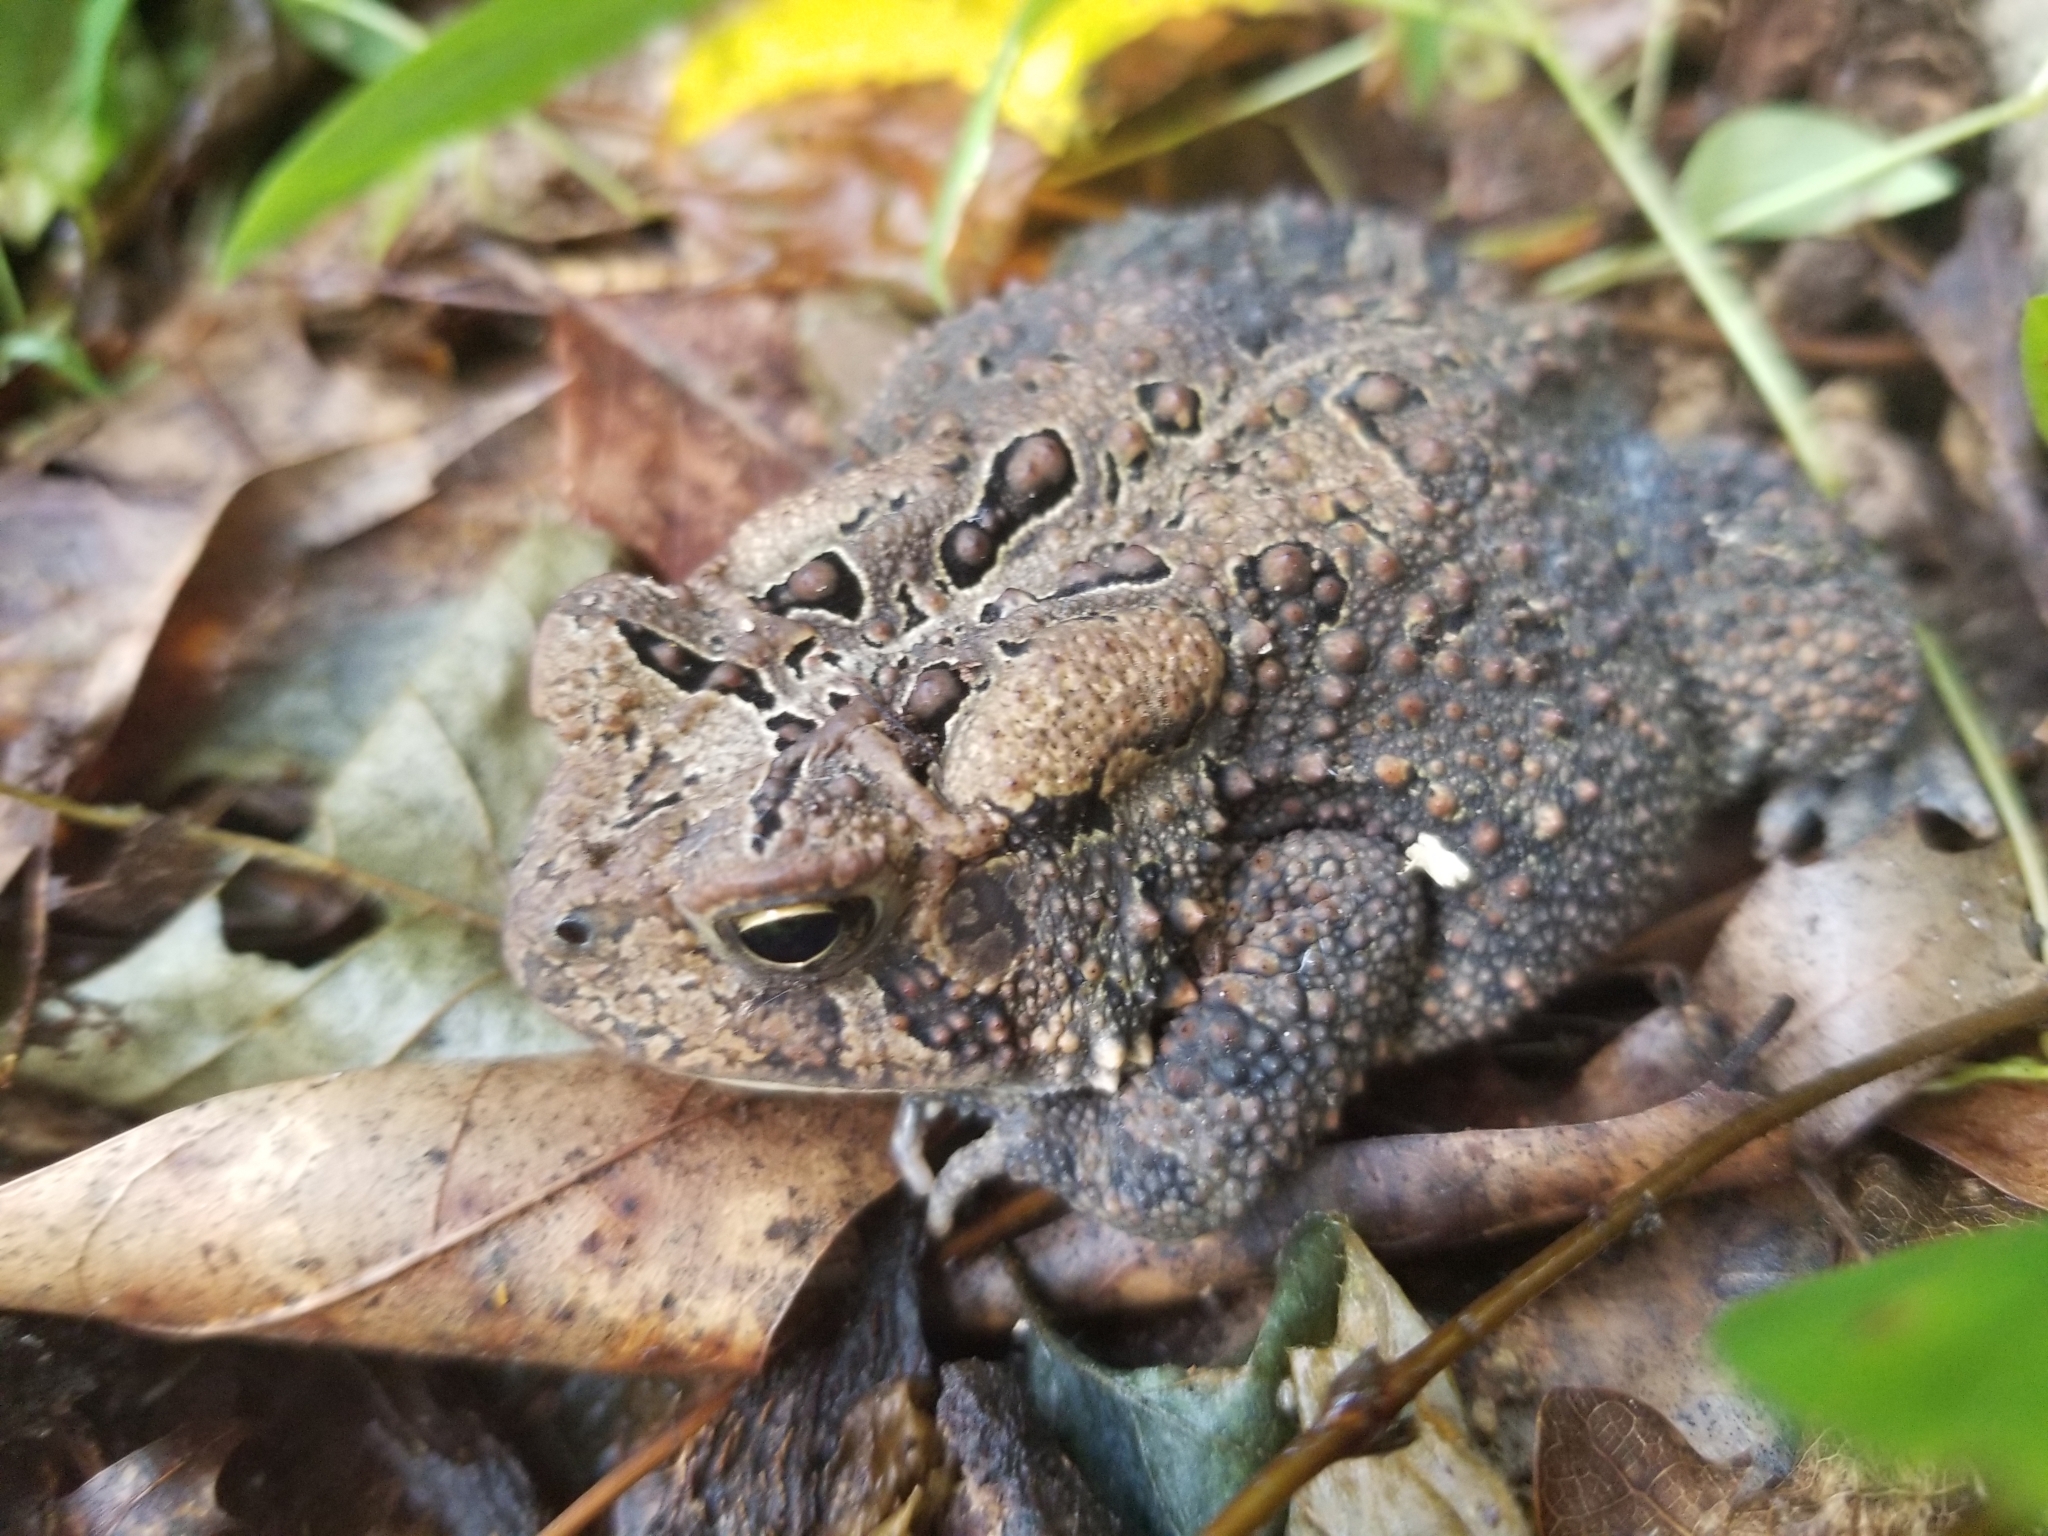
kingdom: Animalia
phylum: Chordata
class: Amphibia
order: Anura
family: Bufonidae
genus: Anaxyrus
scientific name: Anaxyrus americanus
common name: American toad
